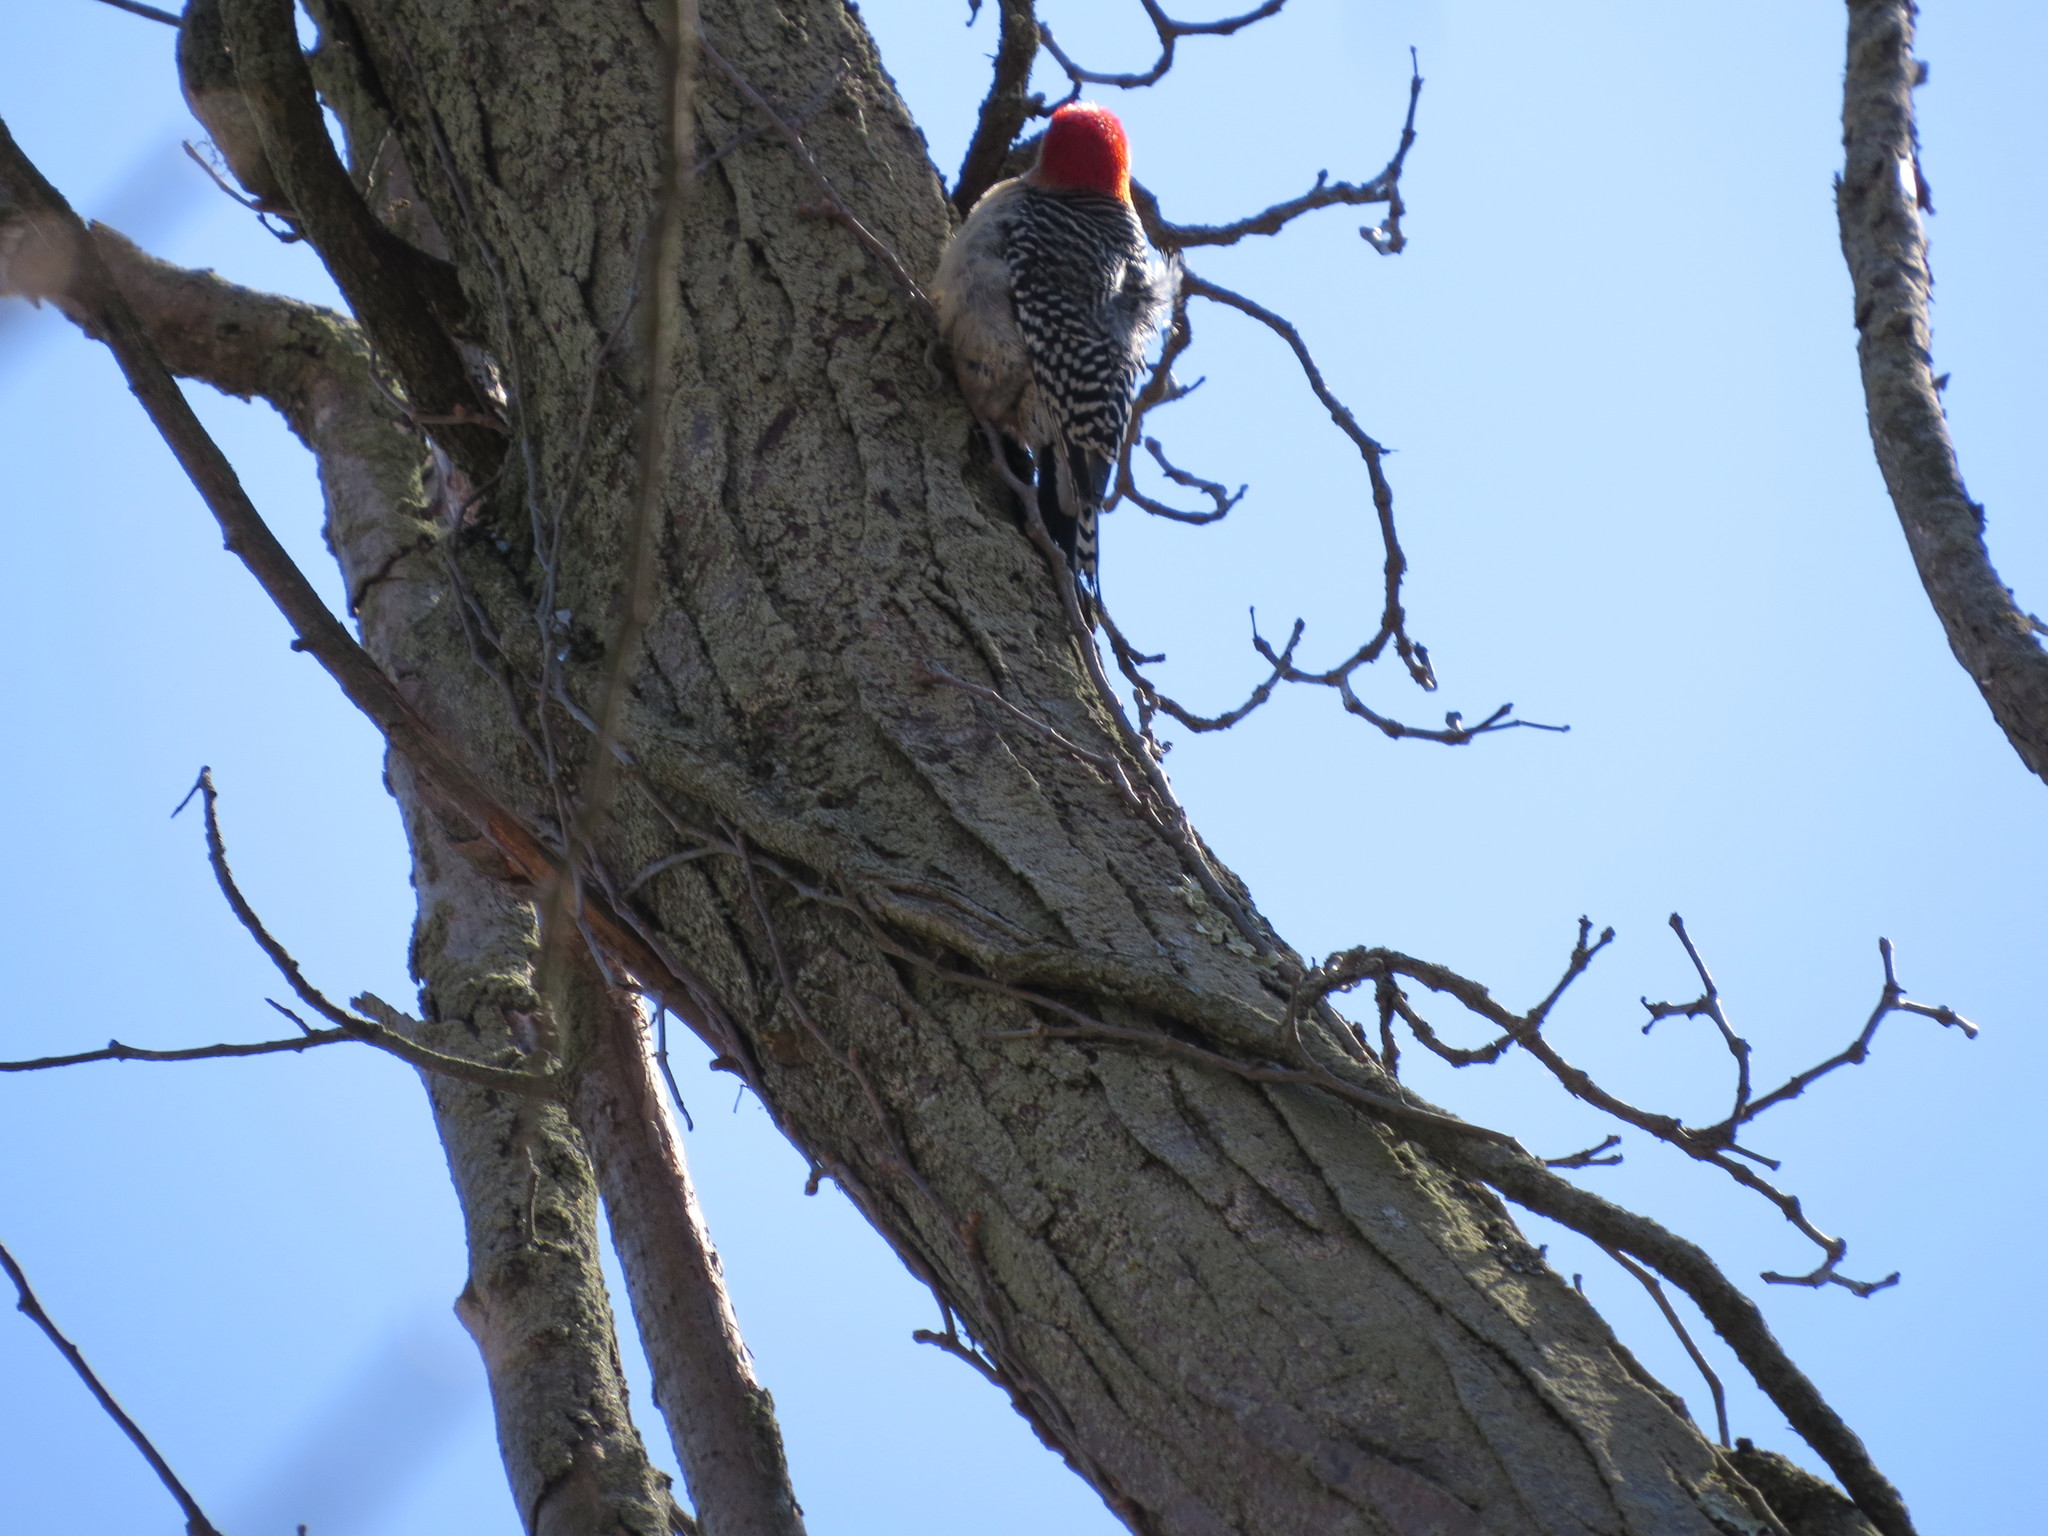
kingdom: Animalia
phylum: Chordata
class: Aves
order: Piciformes
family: Picidae
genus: Melanerpes
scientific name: Melanerpes carolinus
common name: Red-bellied woodpecker
